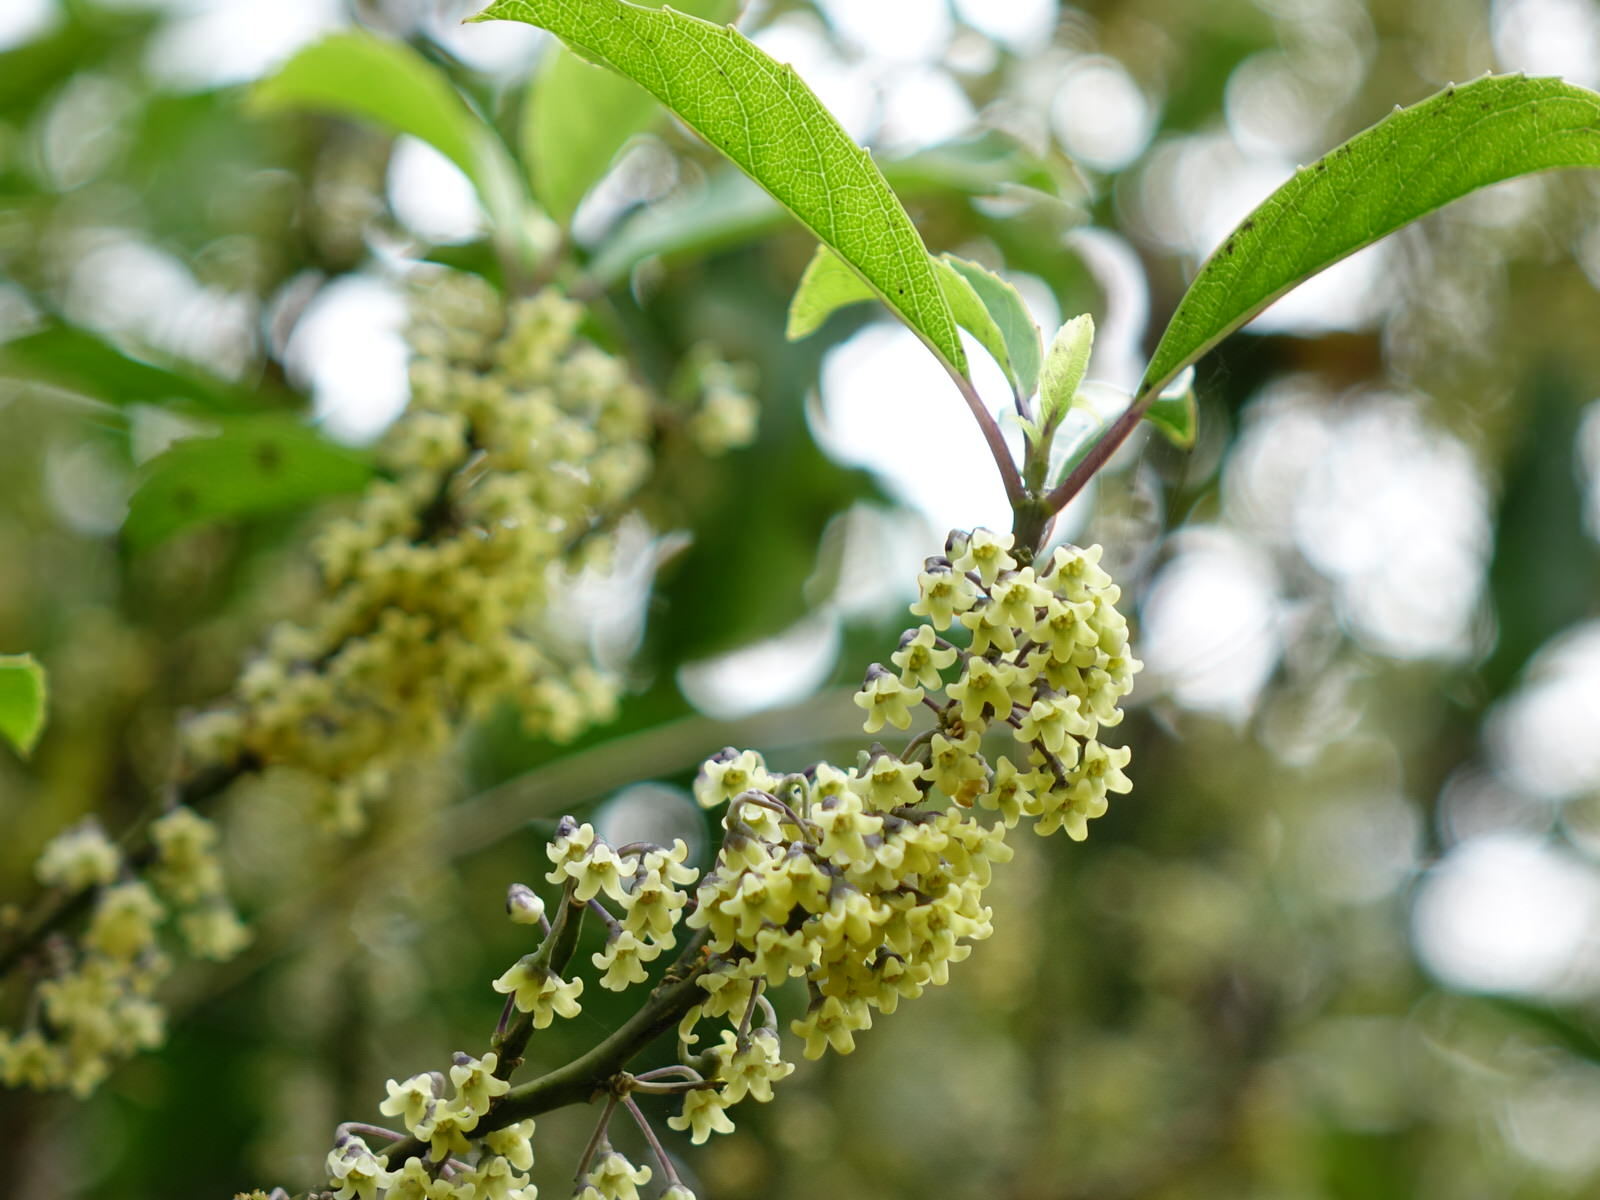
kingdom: Plantae
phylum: Tracheophyta
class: Magnoliopsida
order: Malpighiales
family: Violaceae
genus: Melicytus
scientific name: Melicytus macrophyllus
